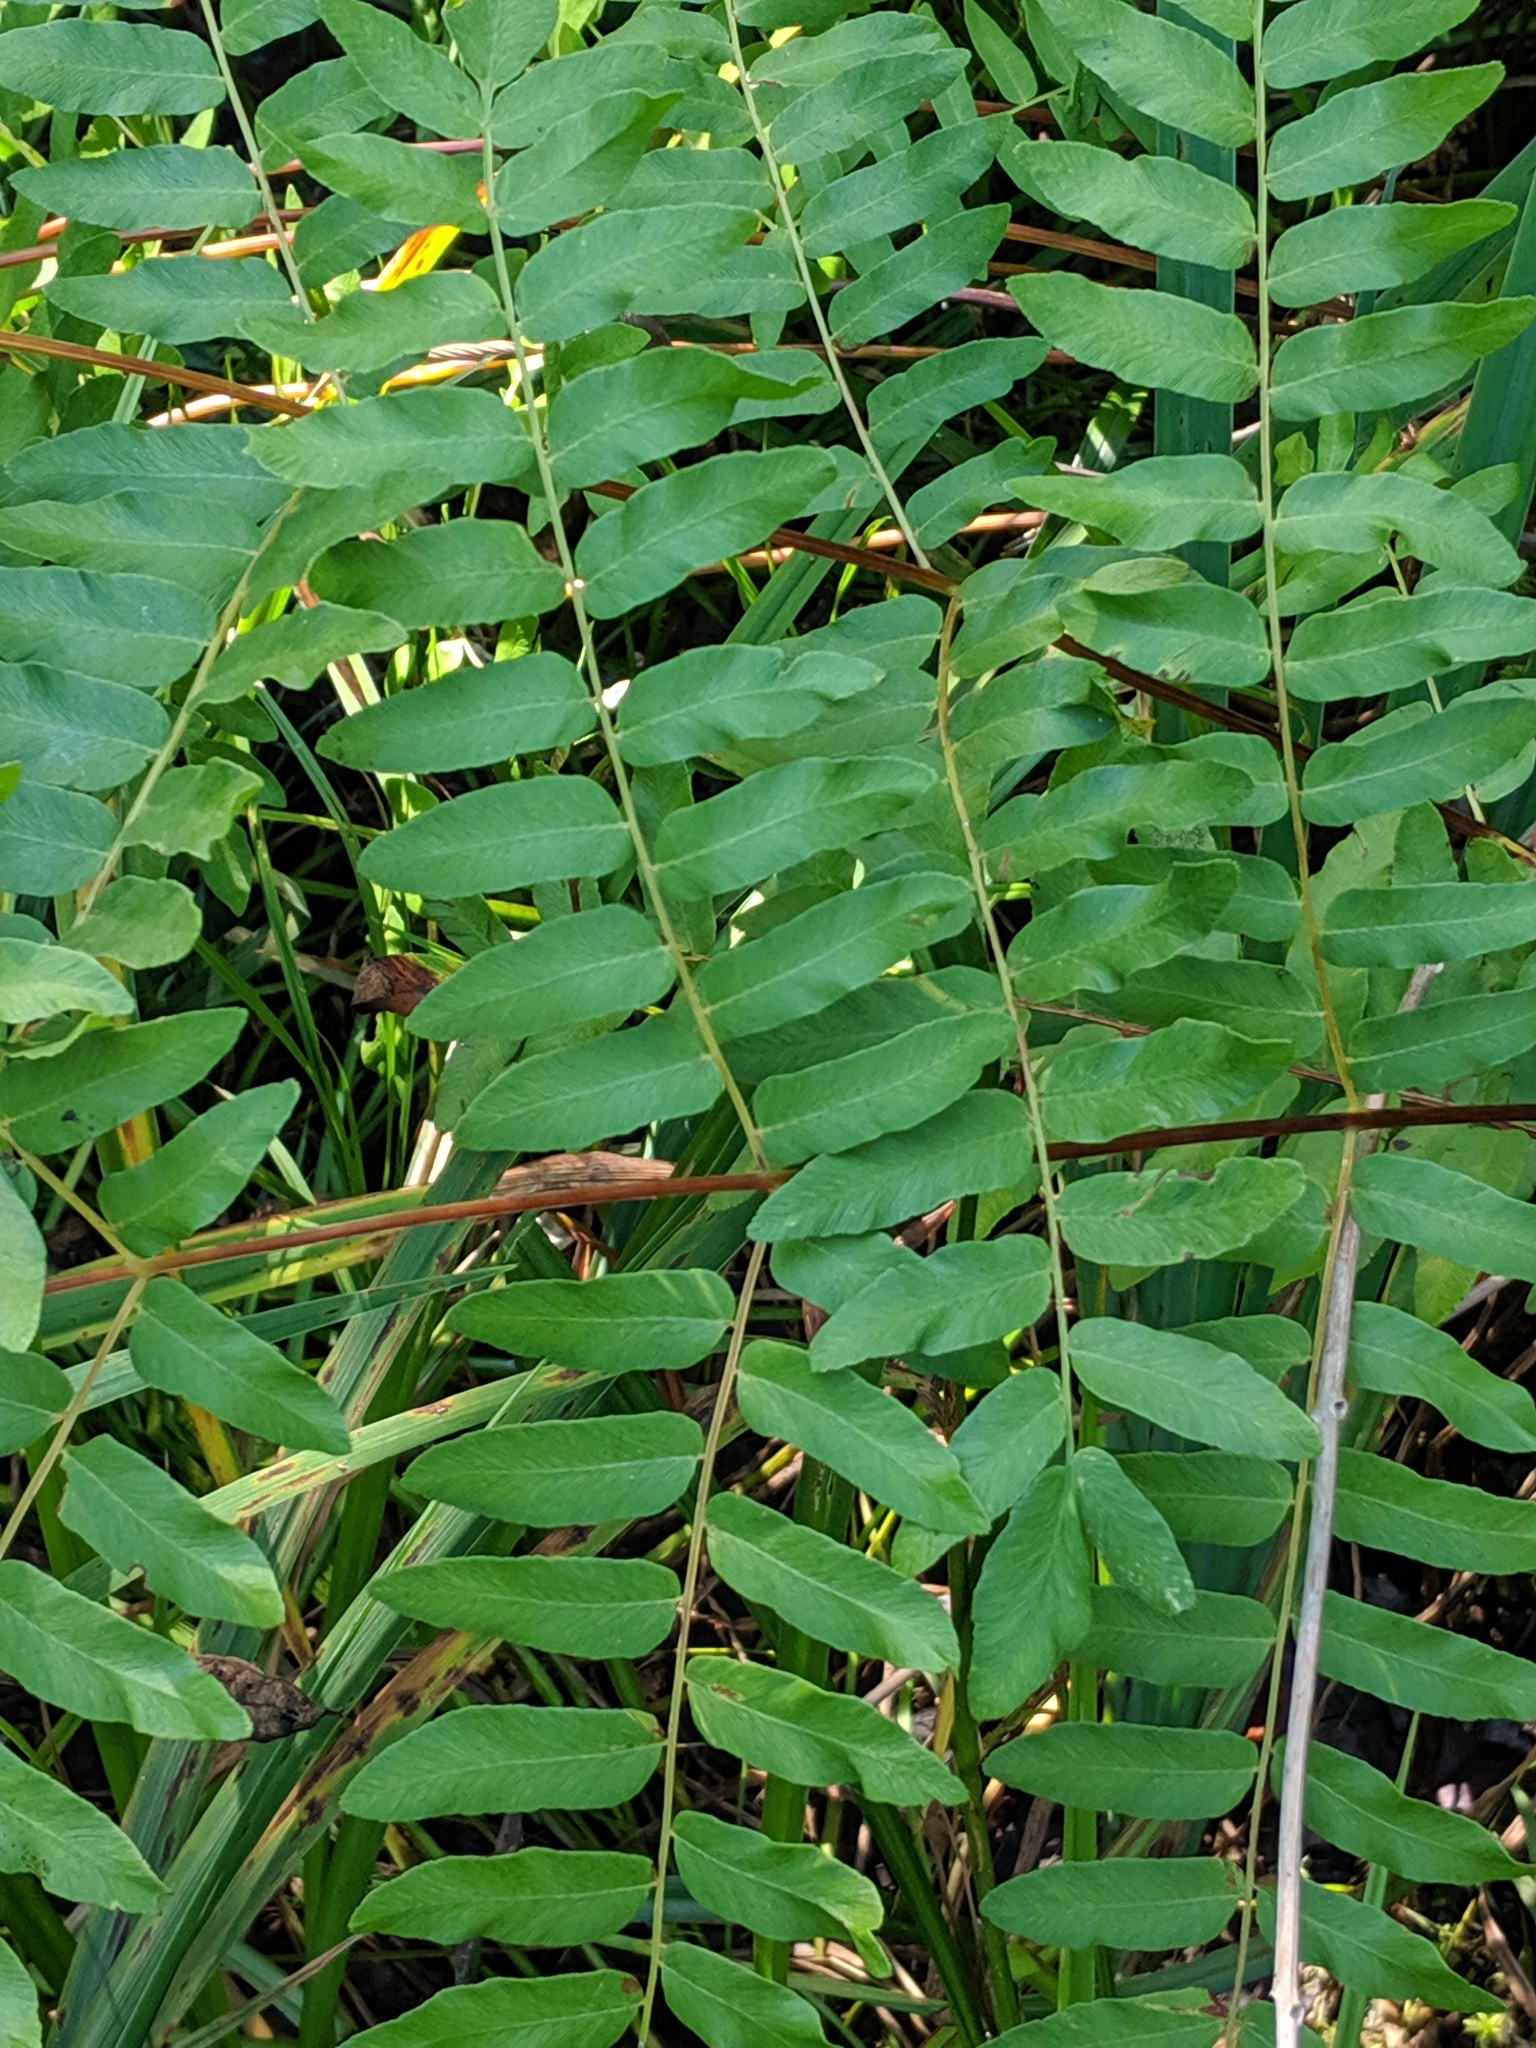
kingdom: Plantae
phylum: Tracheophyta
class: Polypodiopsida
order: Osmundales
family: Osmundaceae
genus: Osmunda
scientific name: Osmunda spectabilis
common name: American royal fern
